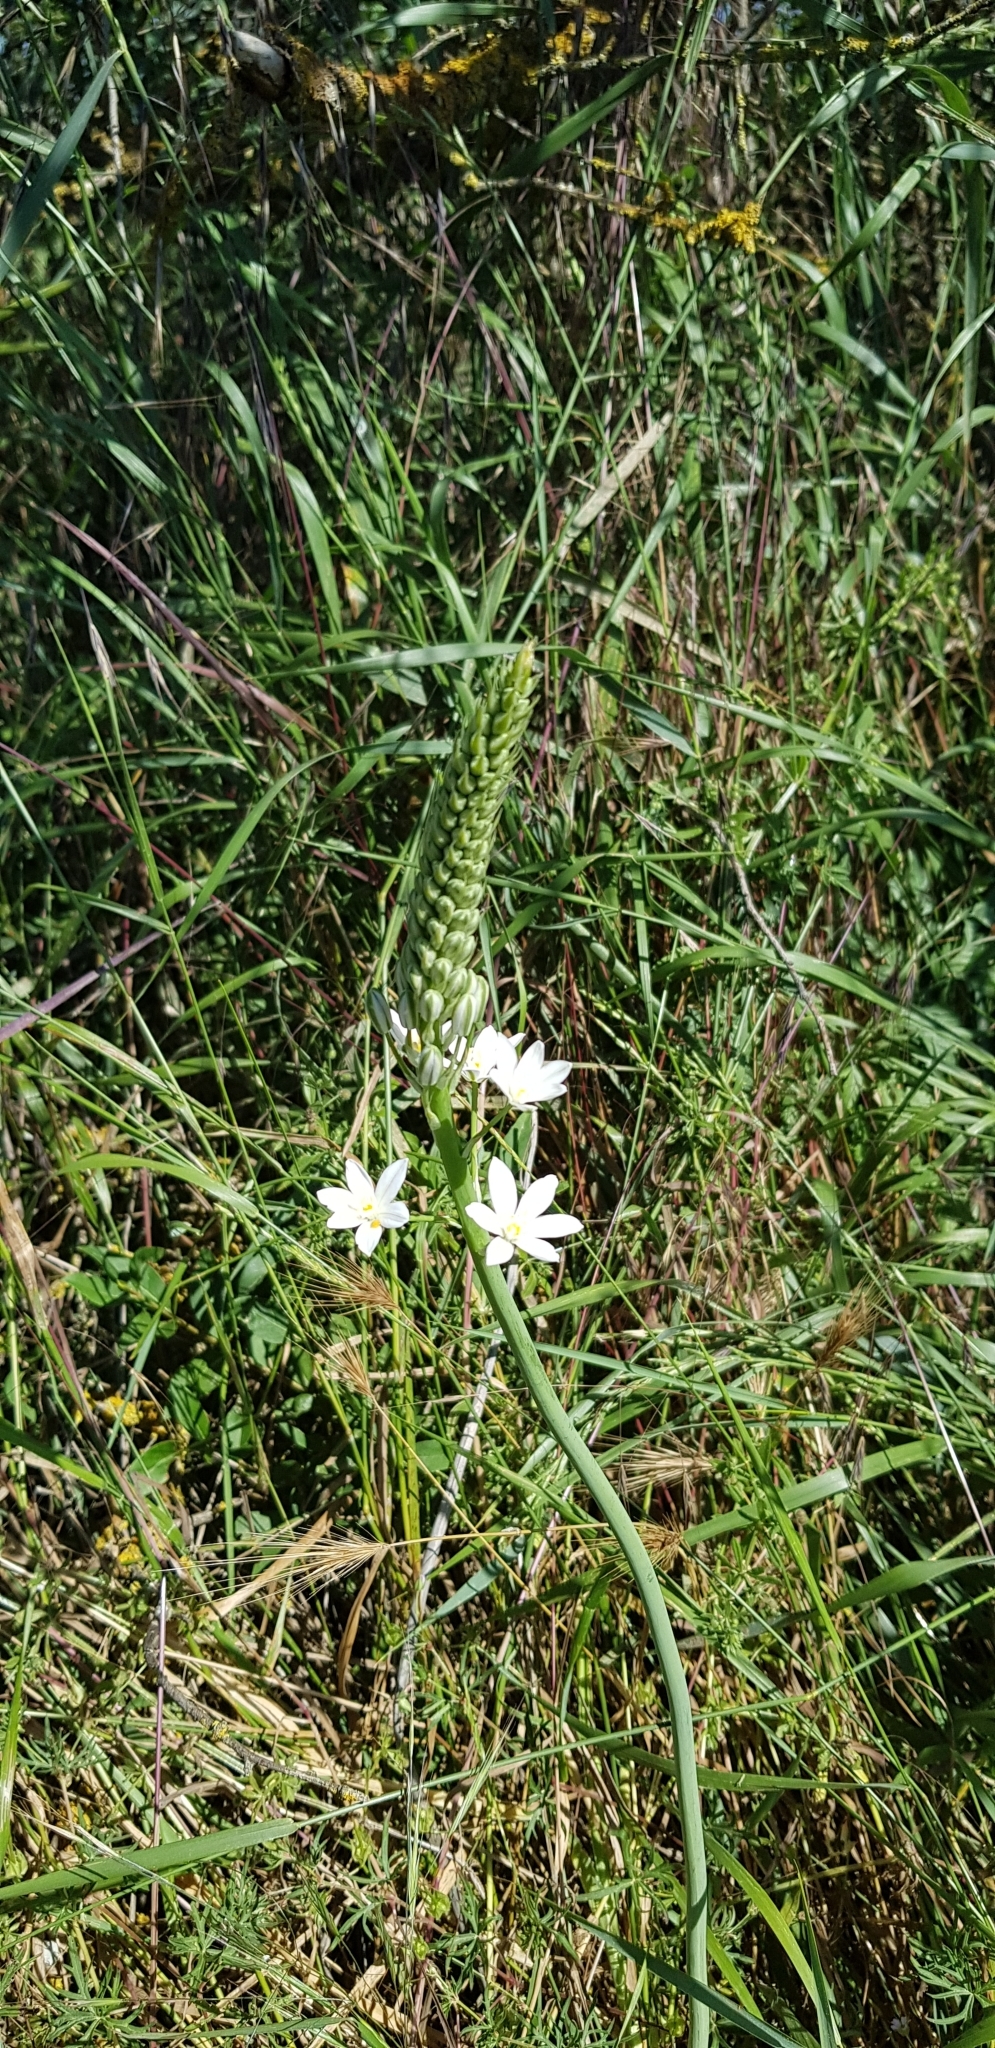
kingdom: Plantae
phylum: Tracheophyta
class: Liliopsida
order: Asparagales
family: Asparagaceae
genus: Ornithogalum
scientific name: Ornithogalum ponticum
